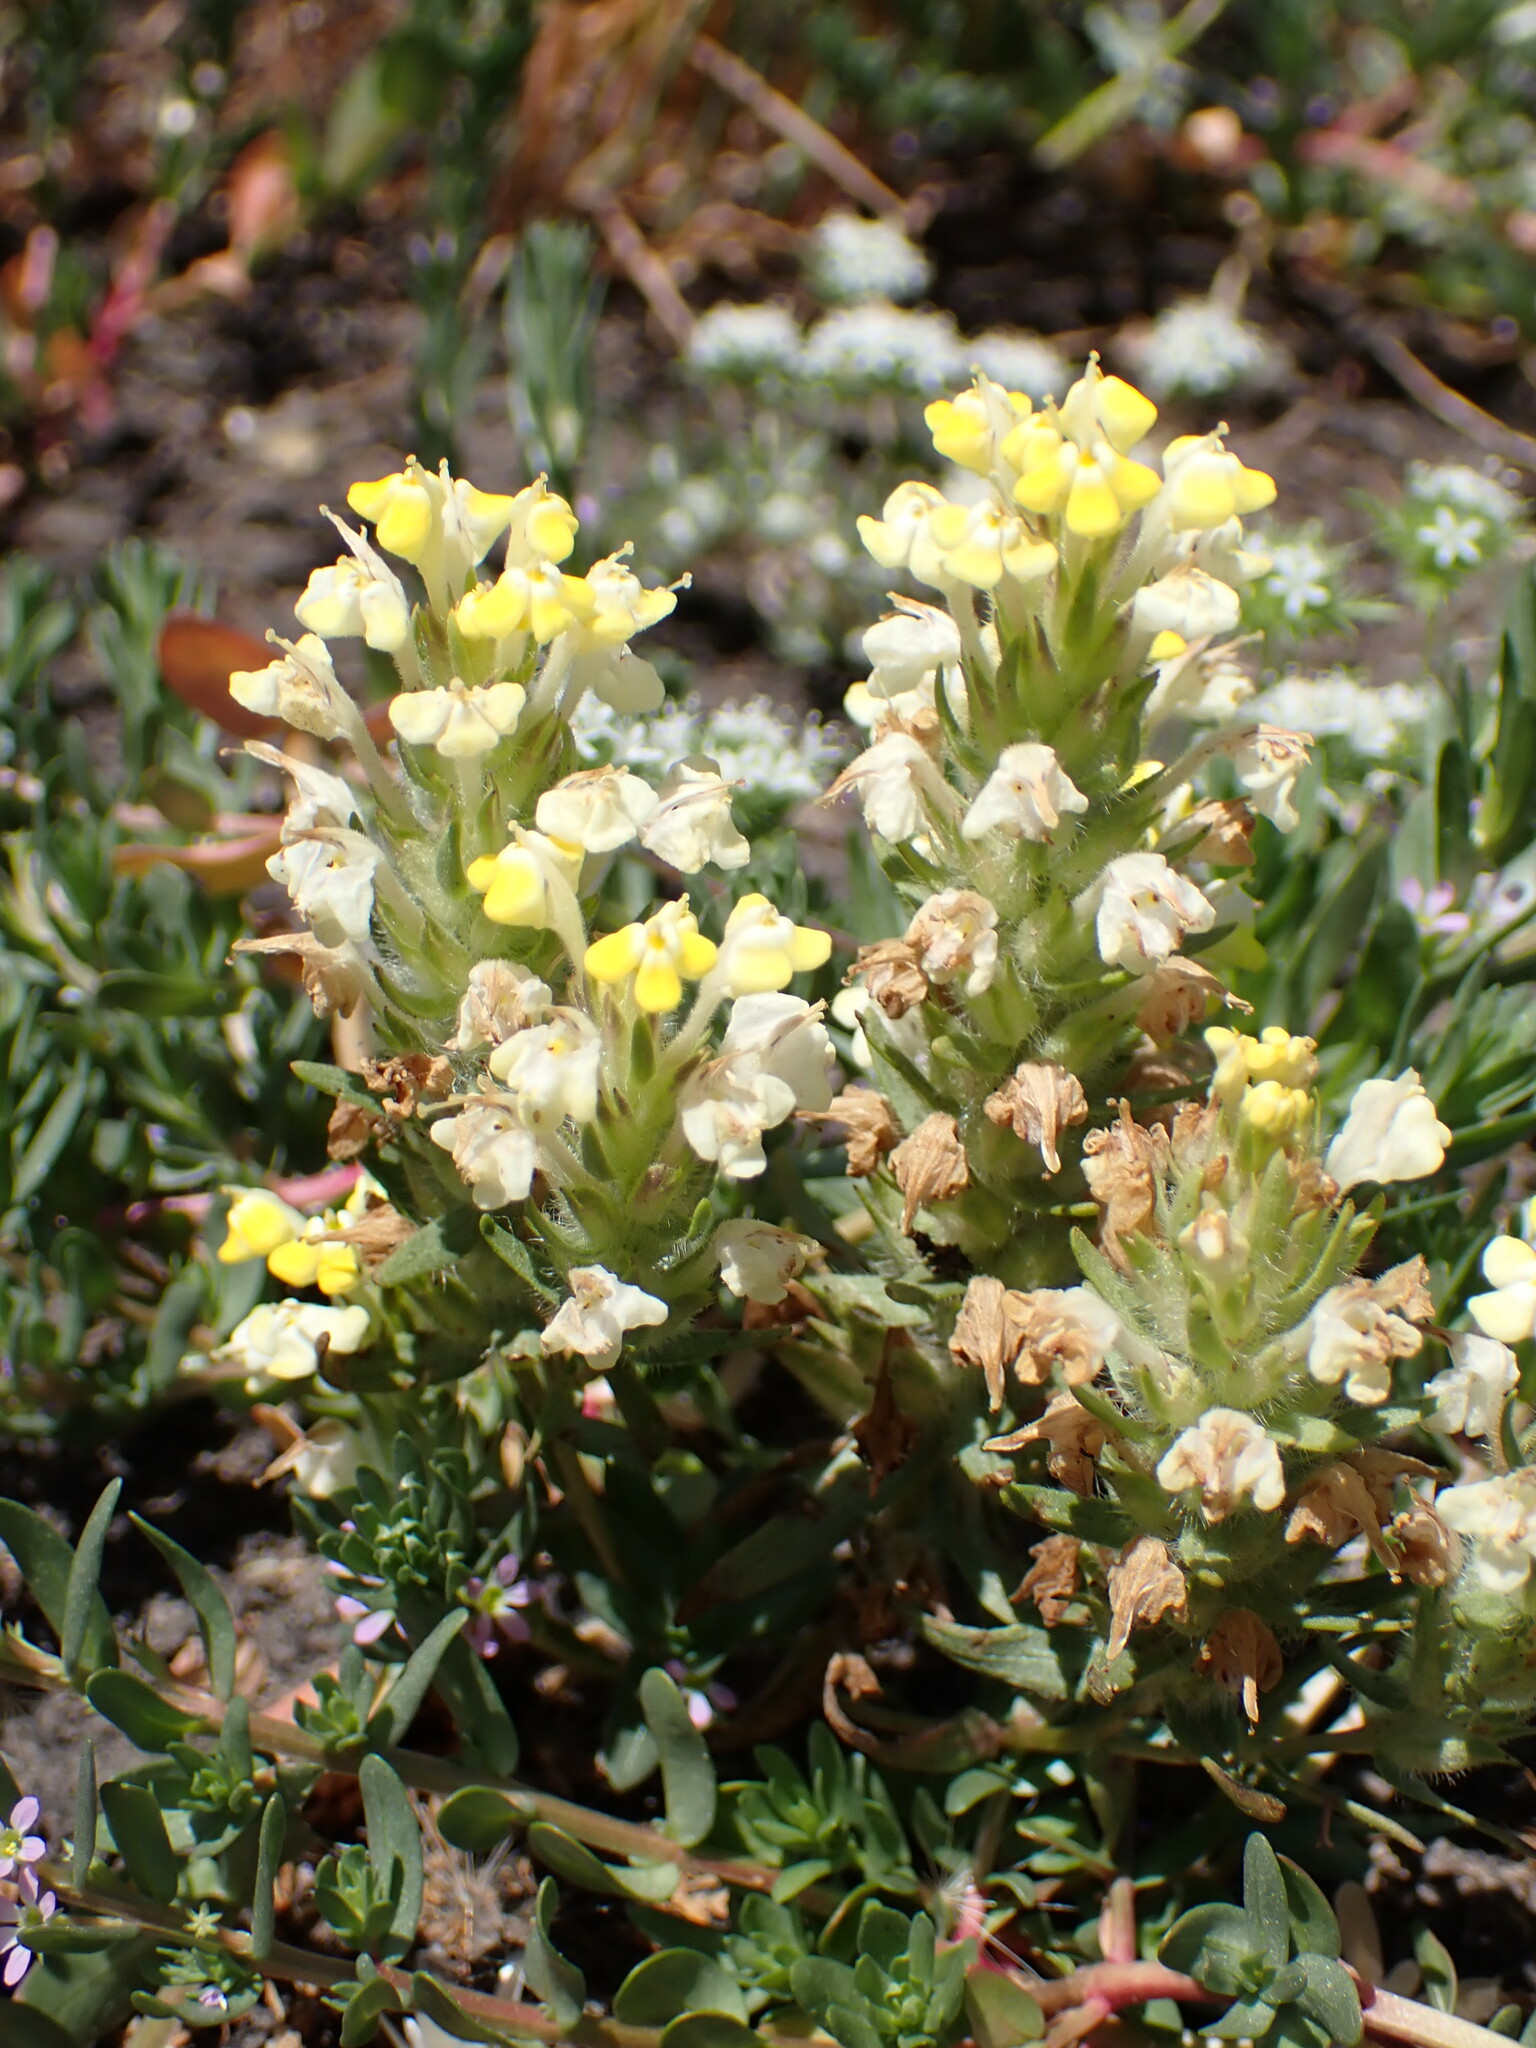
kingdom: Plantae
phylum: Tracheophyta
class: Magnoliopsida
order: Lamiales
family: Orobanchaceae
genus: Castilleja
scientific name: Castilleja campestris
